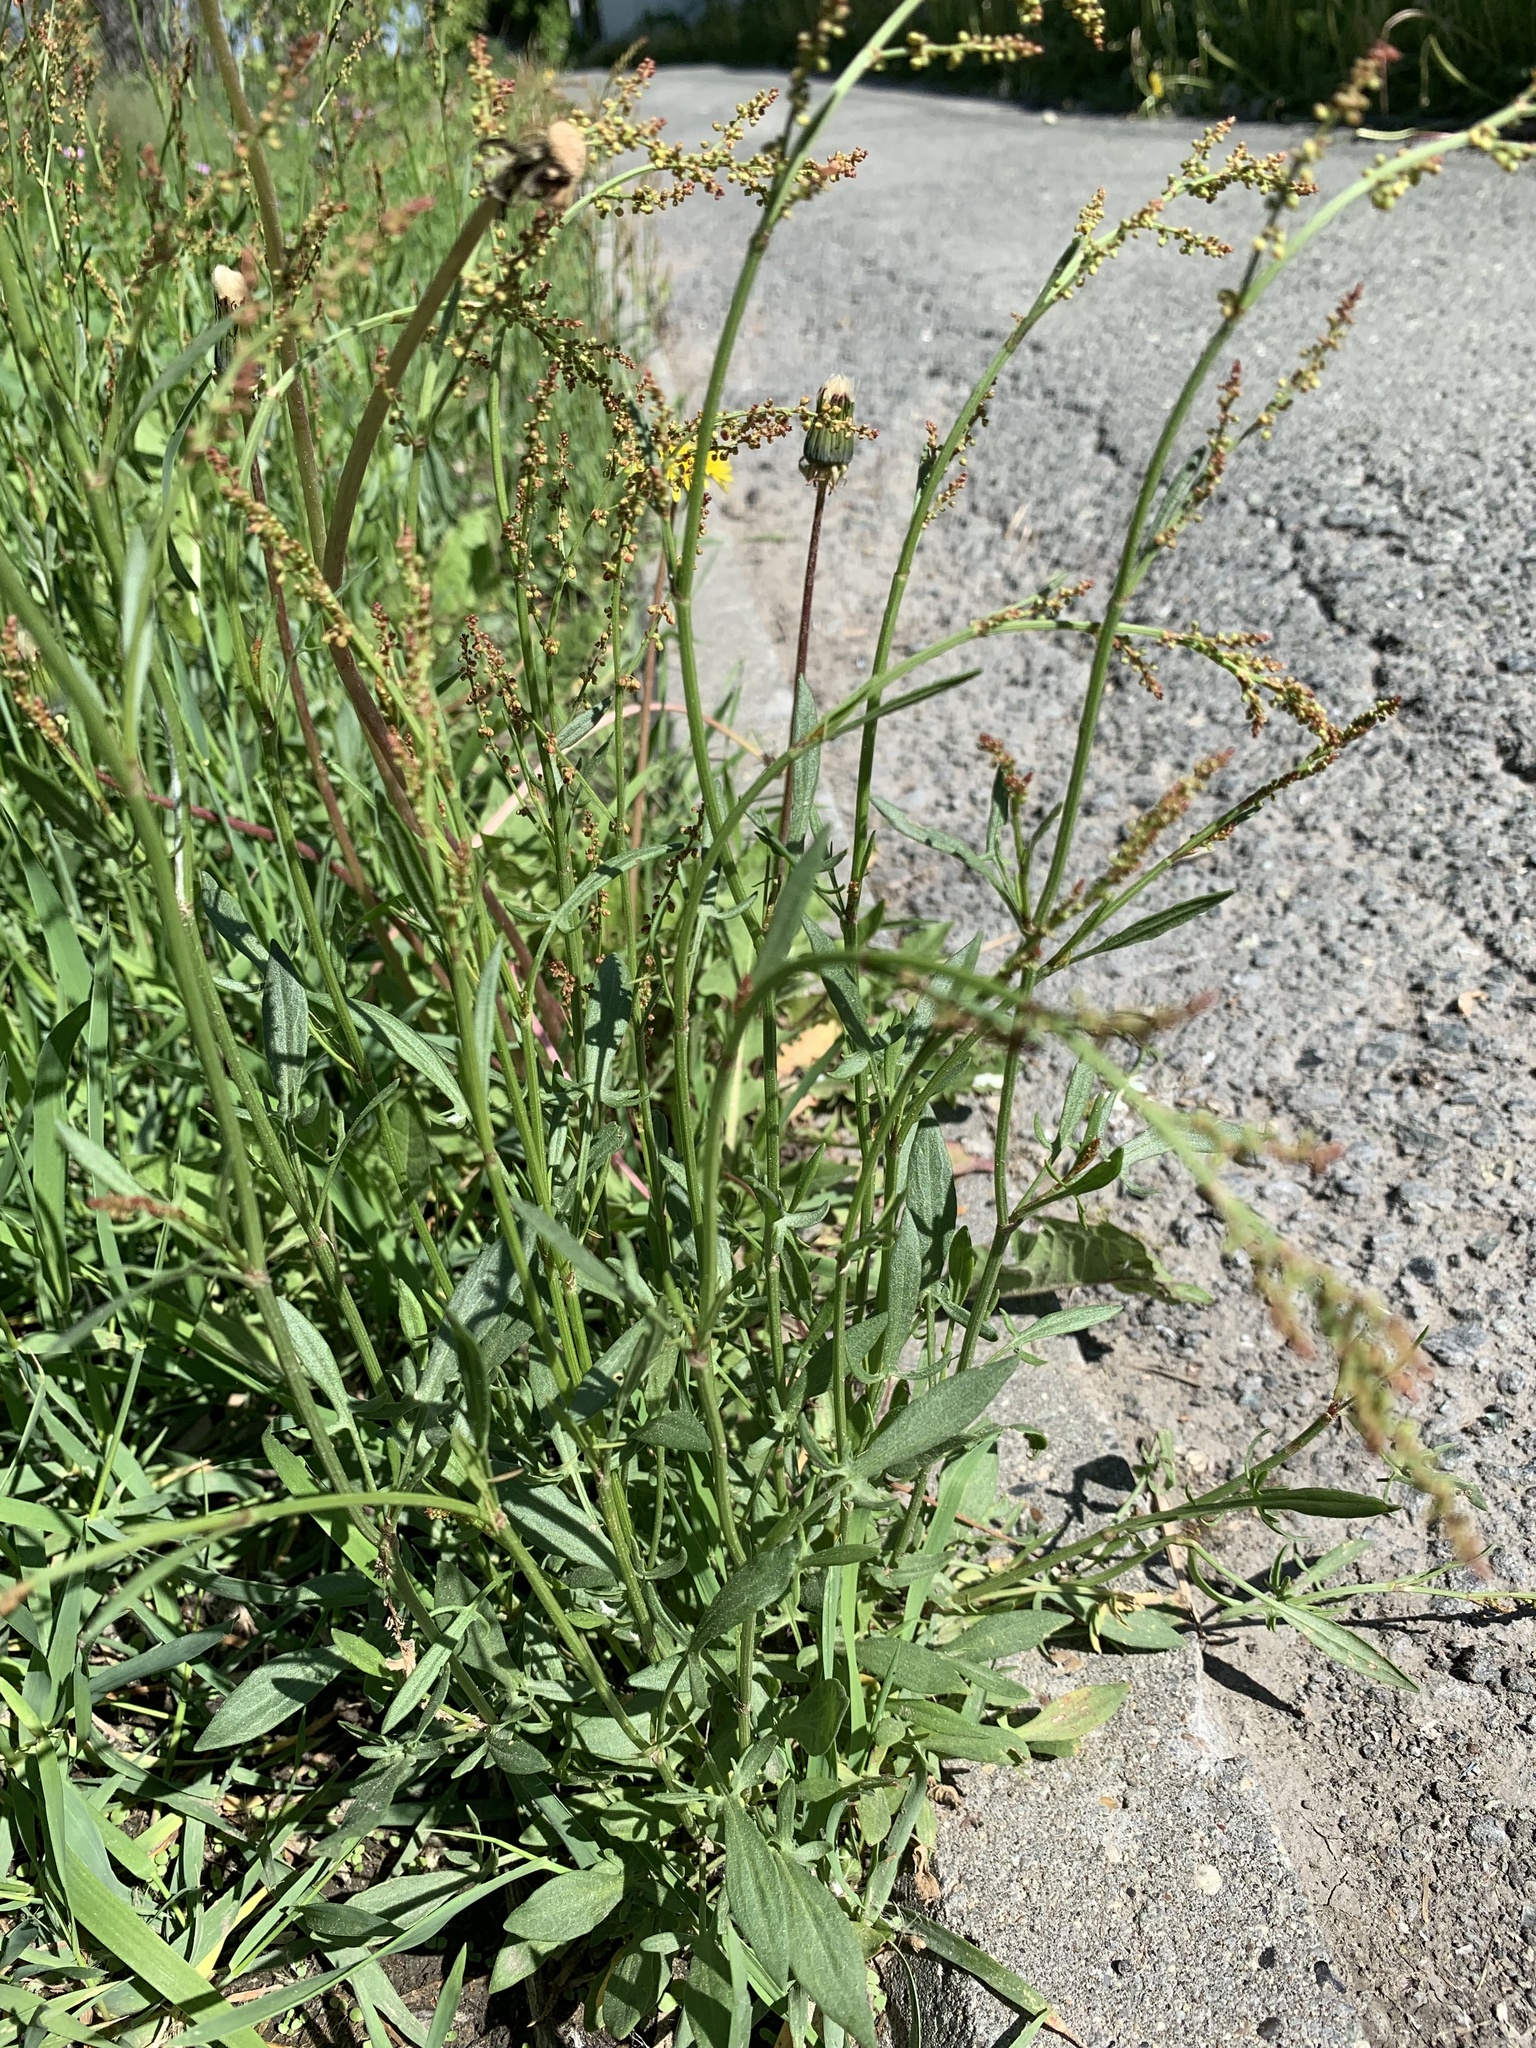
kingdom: Plantae
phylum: Tracheophyta
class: Magnoliopsida
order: Caryophyllales
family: Polygonaceae
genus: Rumex
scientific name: Rumex acetosella
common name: Common sheep sorrel
